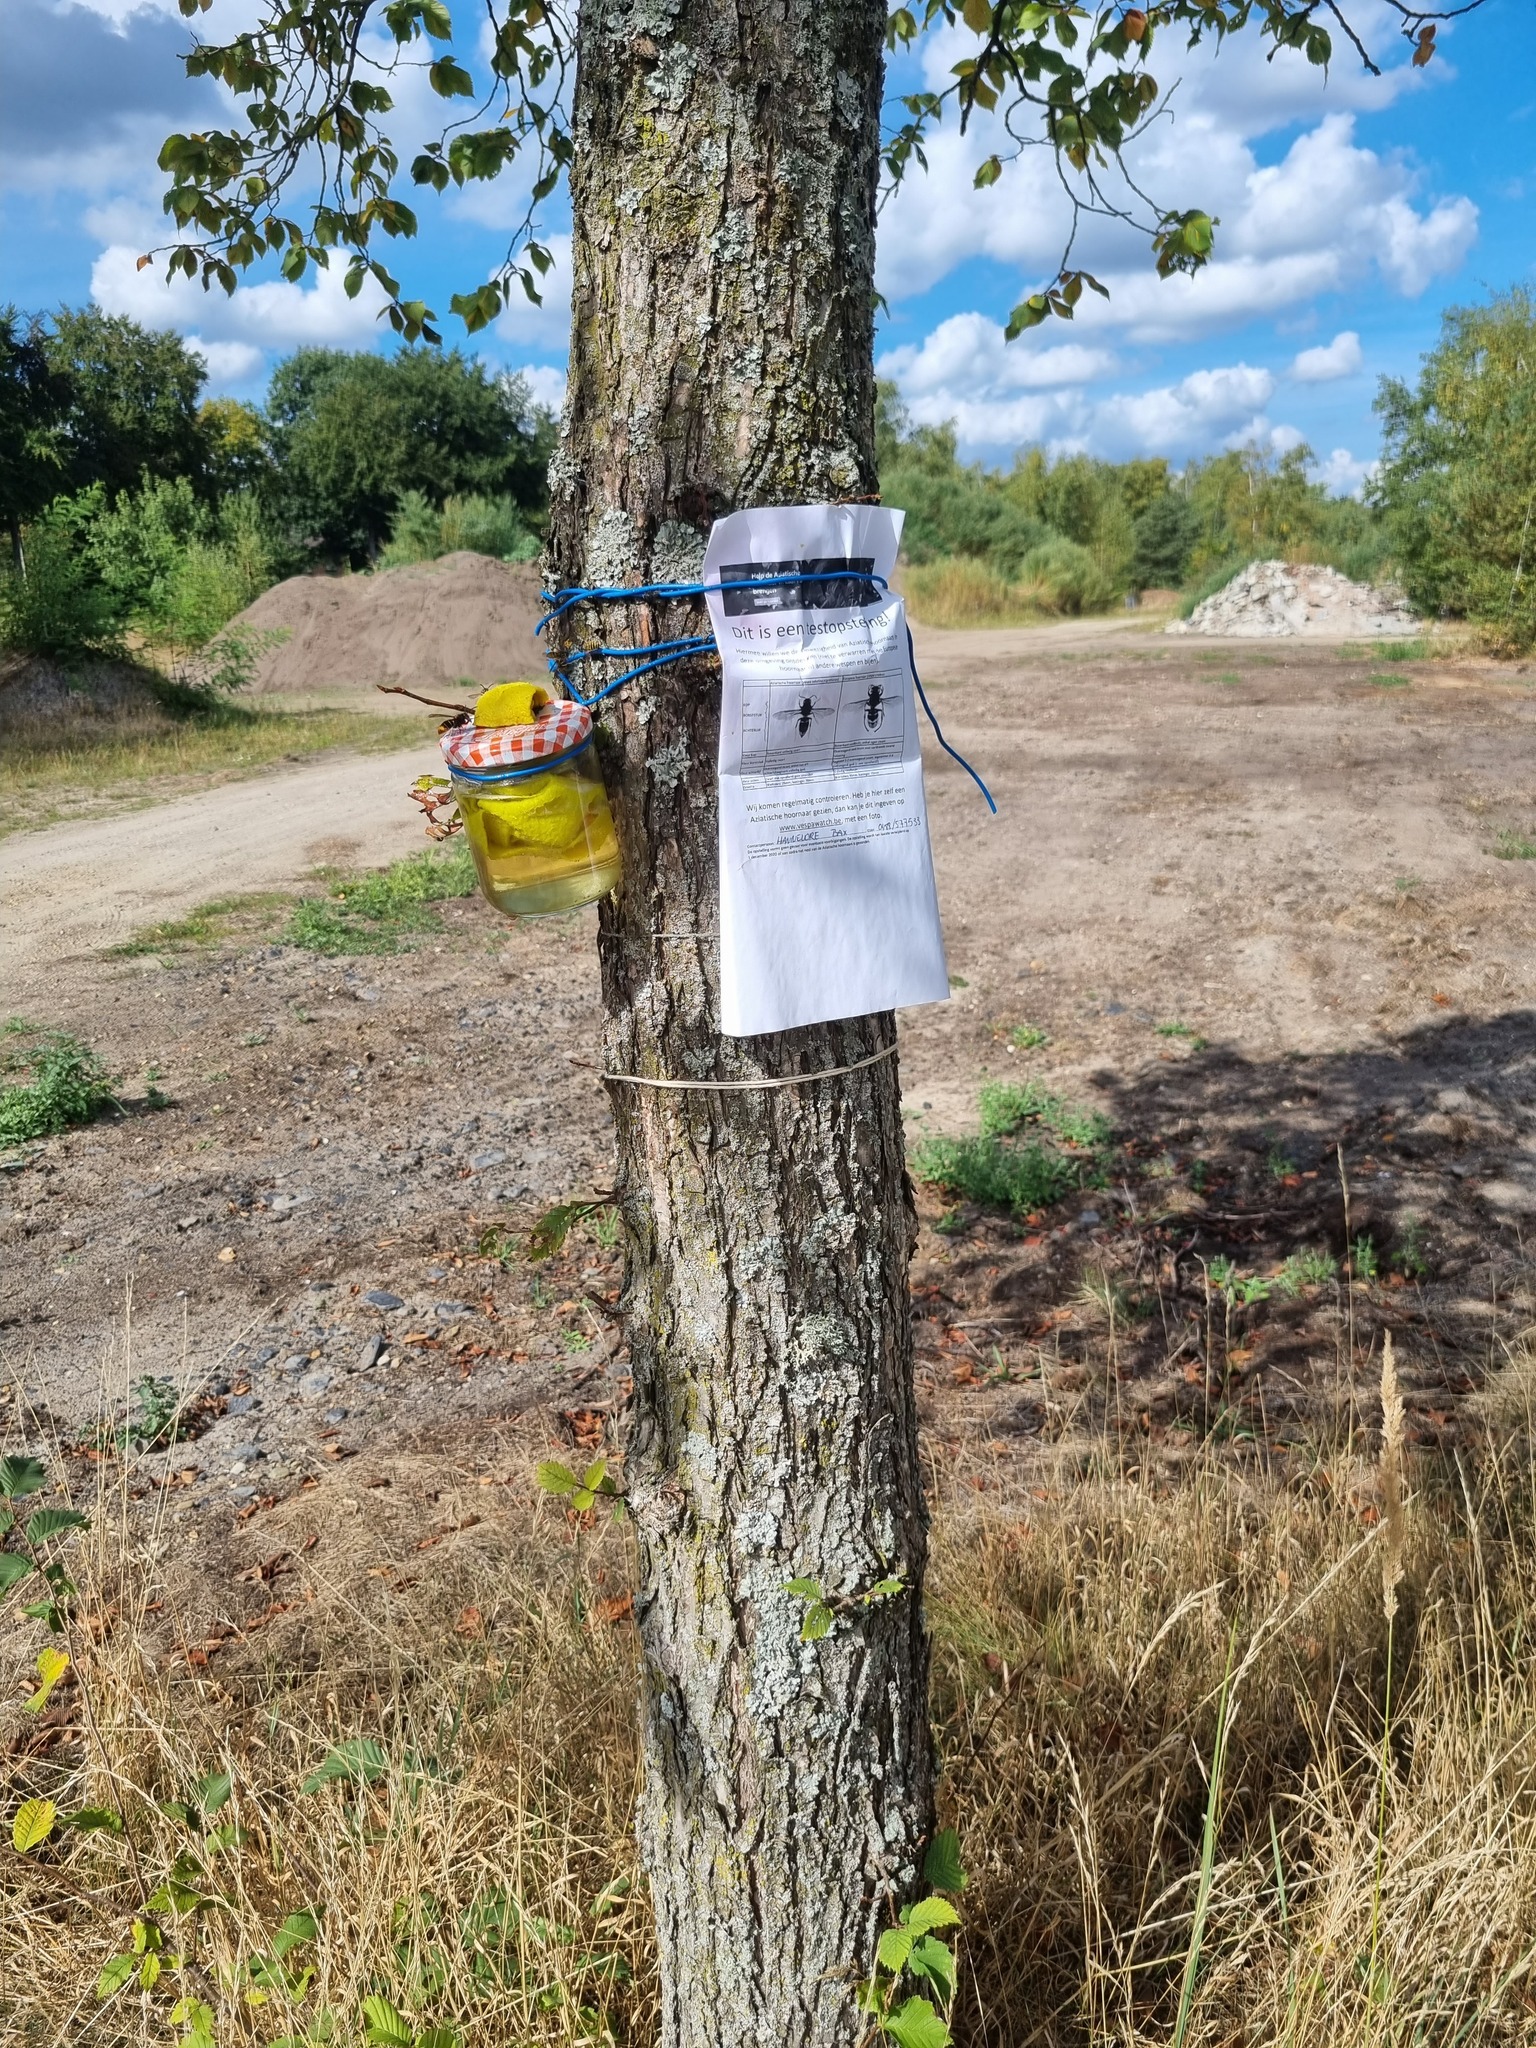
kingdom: Animalia
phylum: Arthropoda
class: Insecta
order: Hymenoptera
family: Vespidae
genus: Vespa
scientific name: Vespa velutina
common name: Asian hornet
